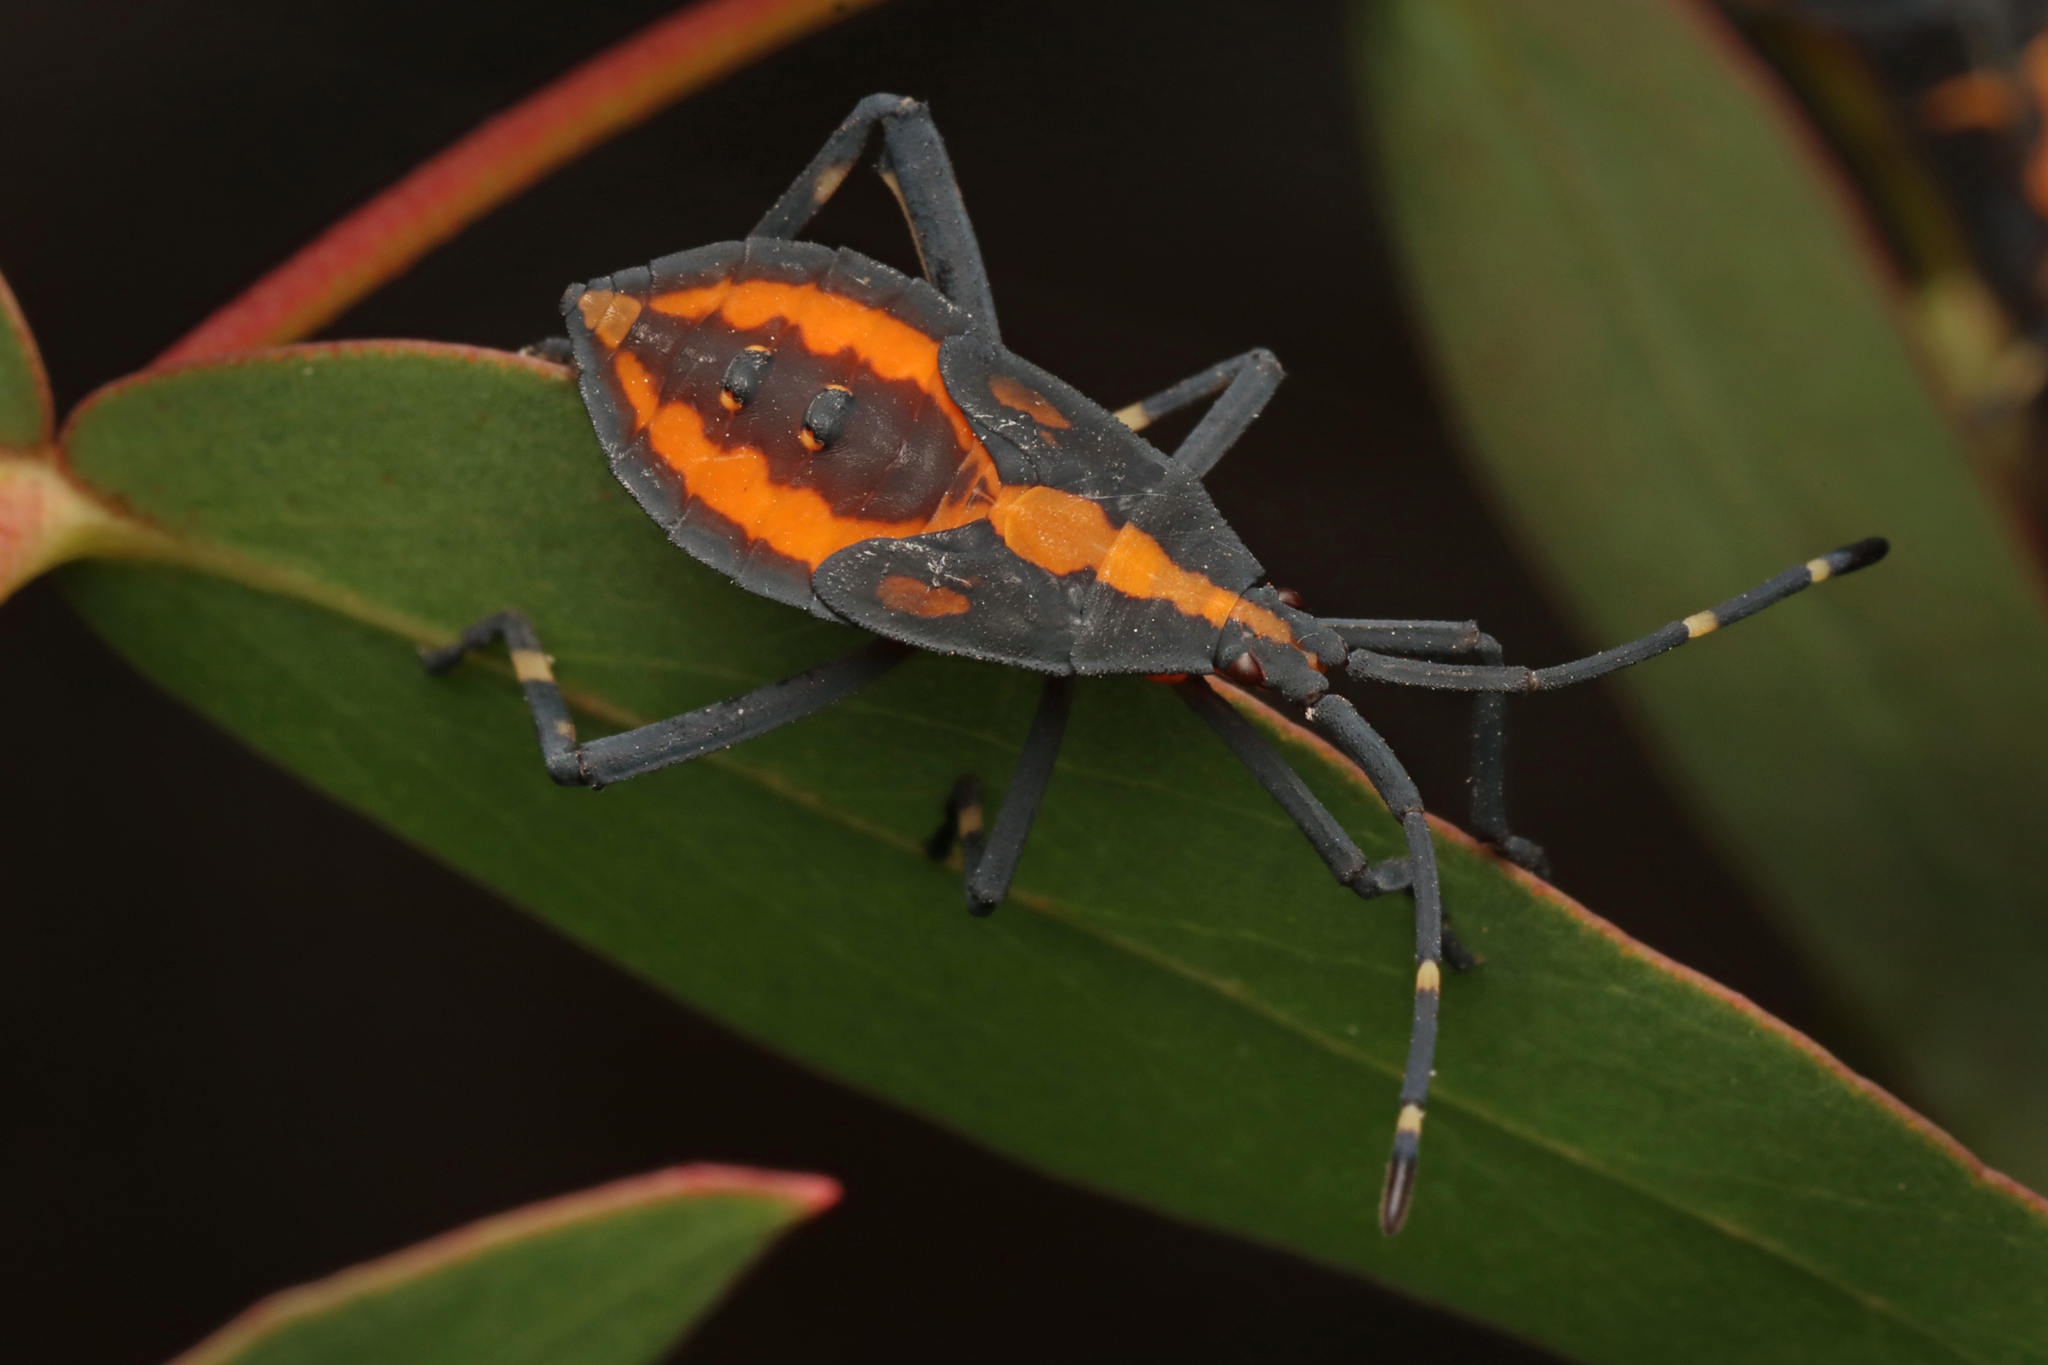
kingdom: Animalia
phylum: Arthropoda
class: Insecta
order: Hemiptera
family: Coreidae
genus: Amorbus
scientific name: Amorbus obscuricornis
